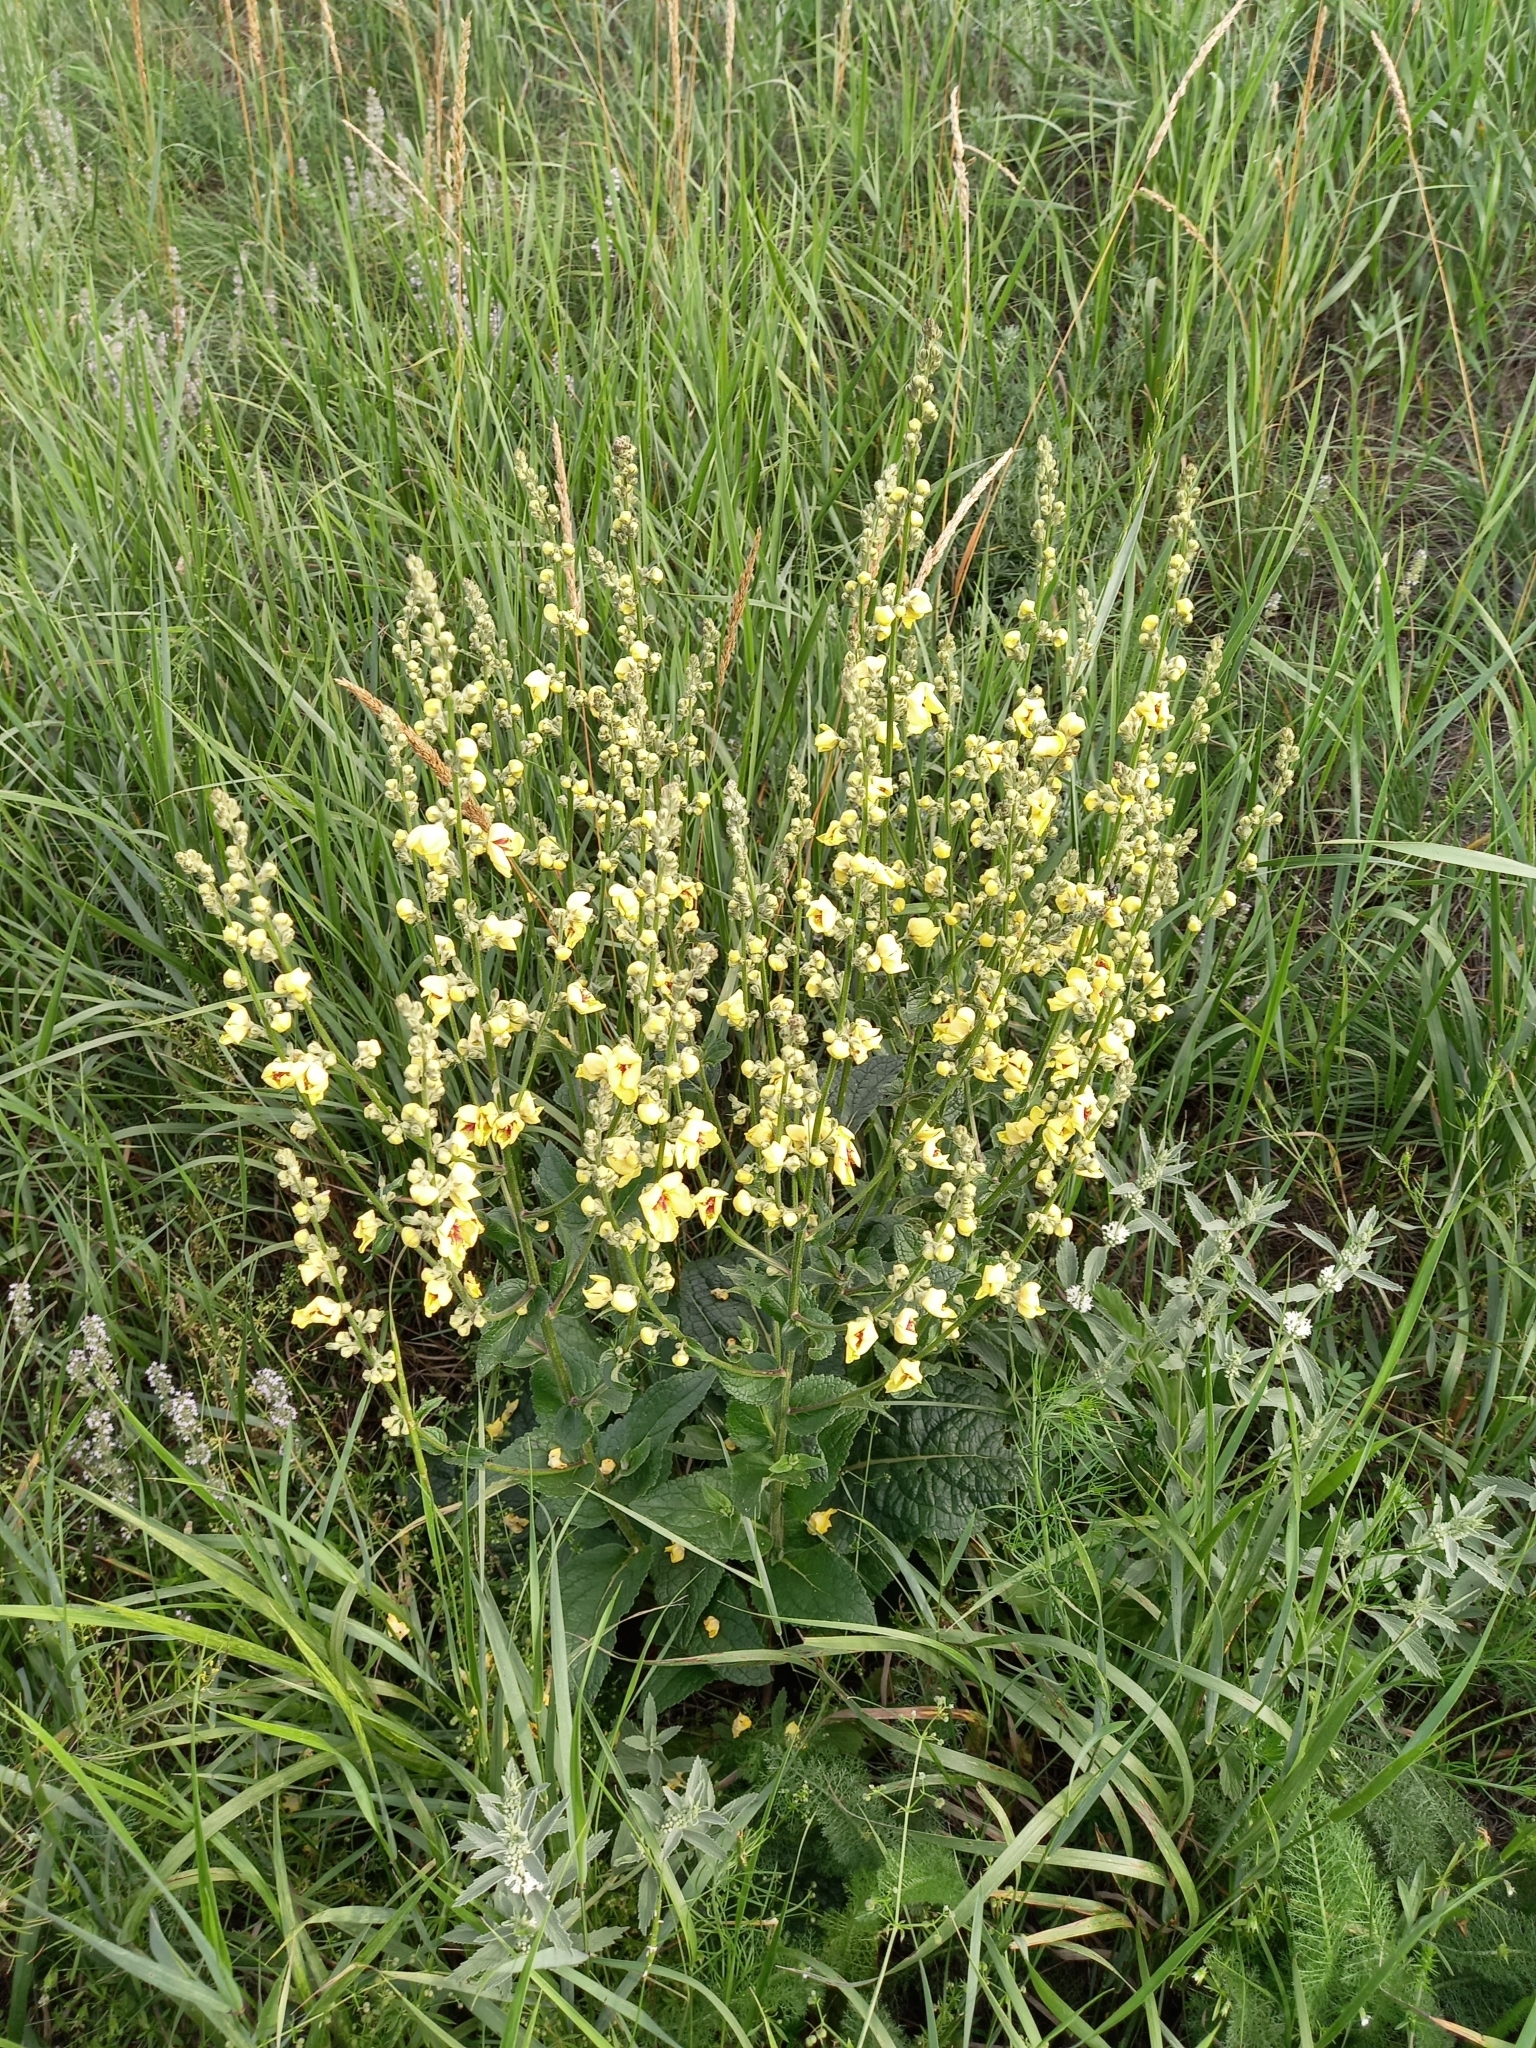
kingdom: Plantae
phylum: Tracheophyta
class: Magnoliopsida
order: Lamiales
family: Scrophulariaceae
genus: Verbascum
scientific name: Verbascum chaixii
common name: Nettle-leaved mullein
